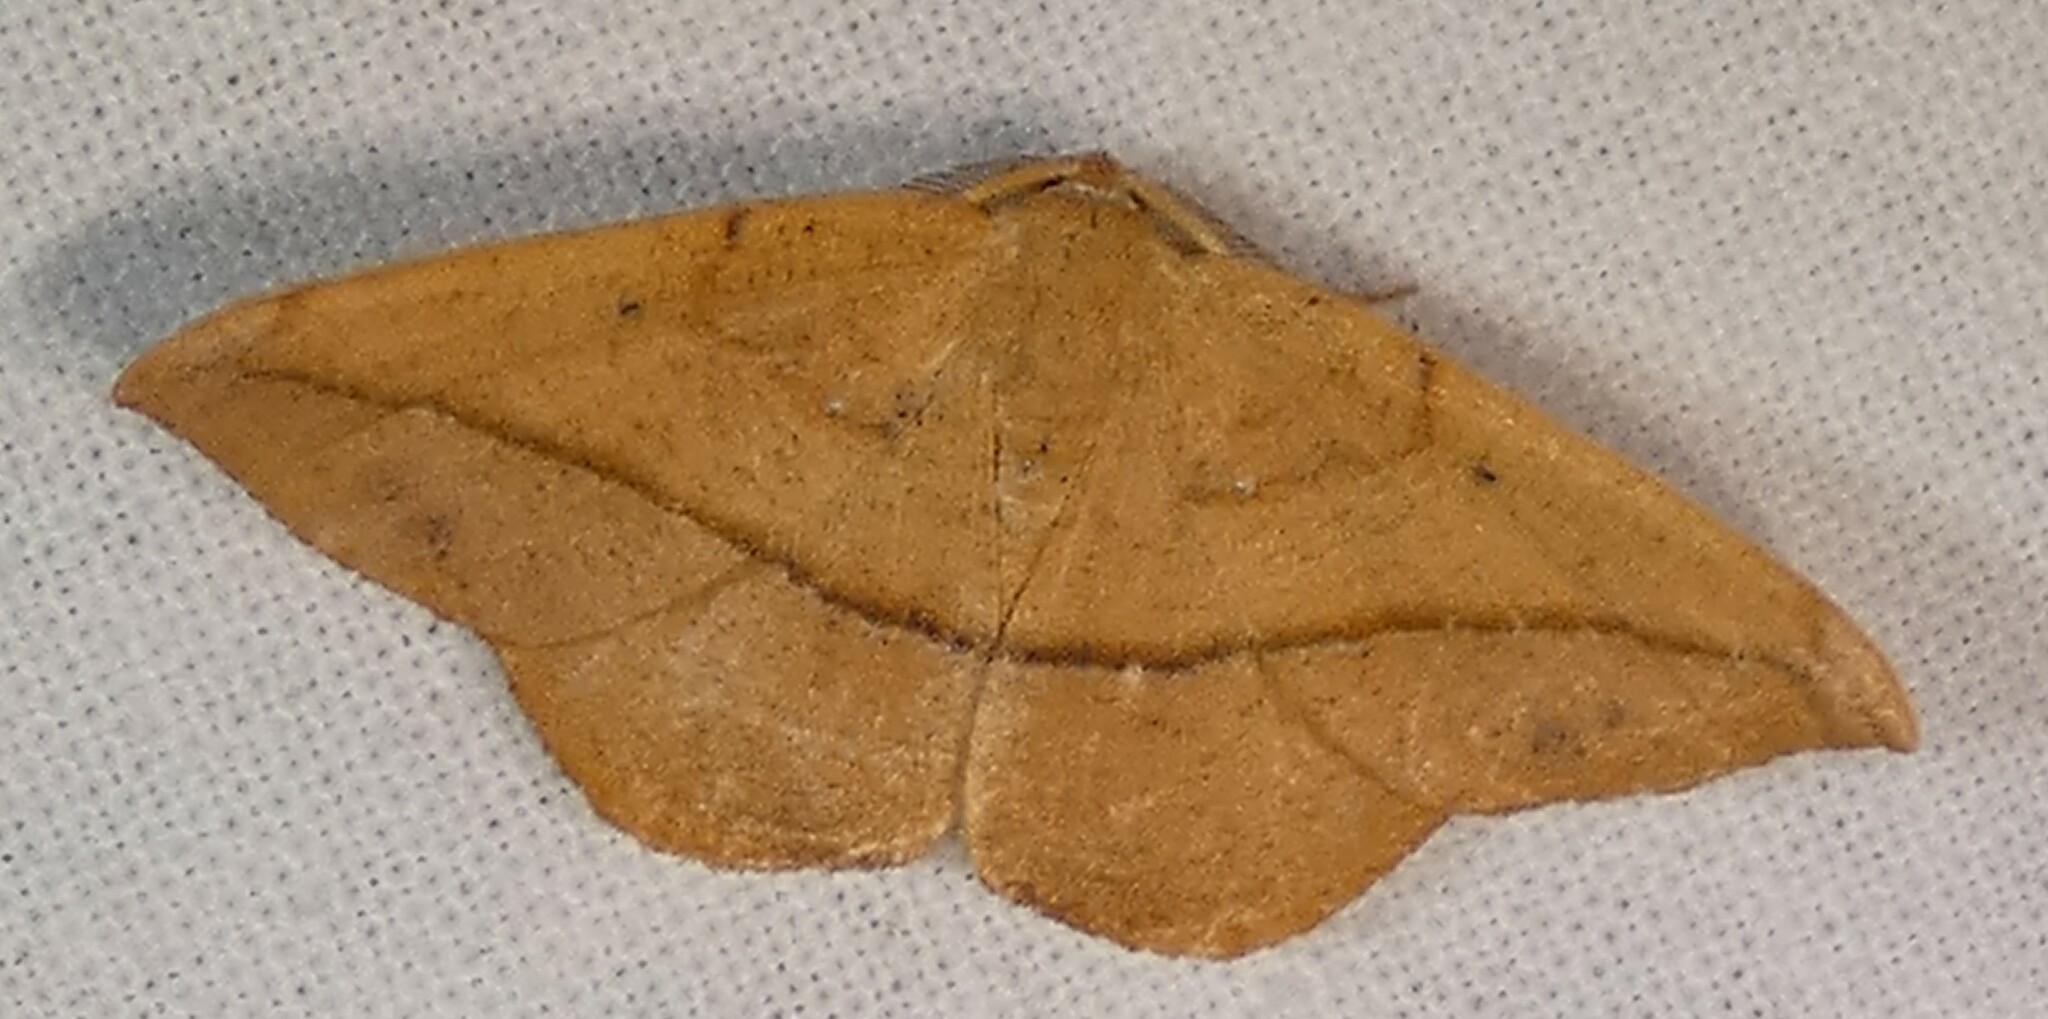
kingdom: Animalia
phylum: Arthropoda
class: Insecta
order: Lepidoptera
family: Geometridae
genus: Patalene
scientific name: Patalene olyzonaria
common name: Juniper geometer moth
